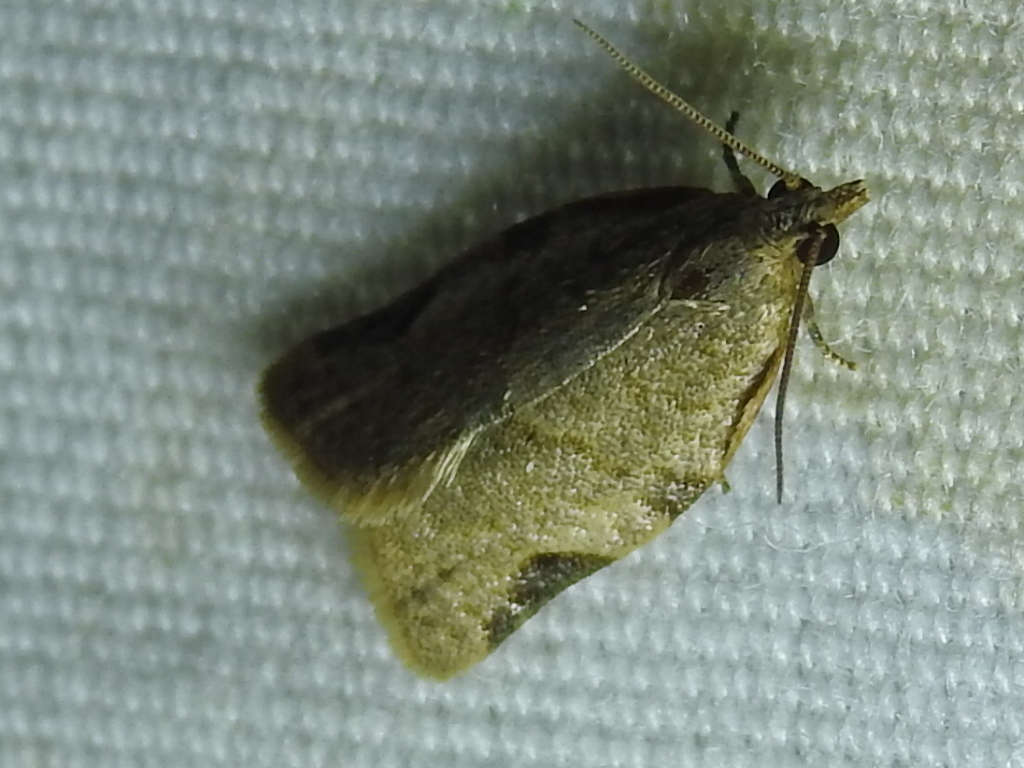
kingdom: Animalia
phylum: Arthropoda
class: Insecta
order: Lepidoptera
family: Tortricidae
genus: Clepsis
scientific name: Clepsis virescana
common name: Greenish apple moth
